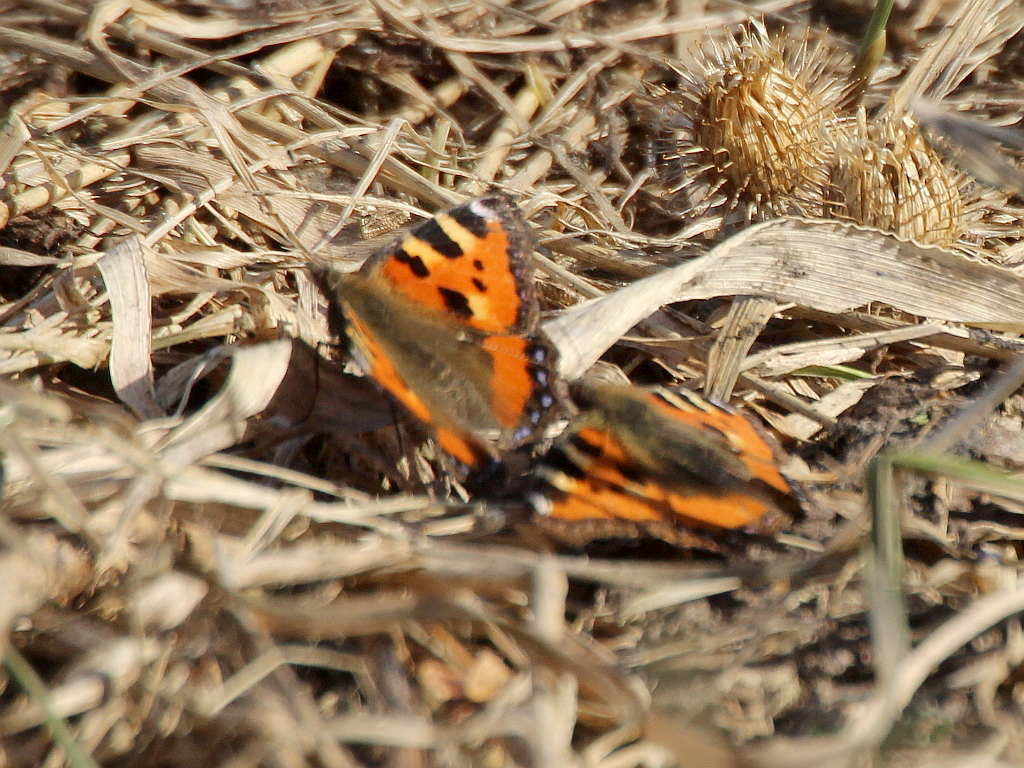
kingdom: Animalia
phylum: Arthropoda
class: Insecta
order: Lepidoptera
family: Nymphalidae
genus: Aglais
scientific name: Aglais urticae
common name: Small tortoiseshell
